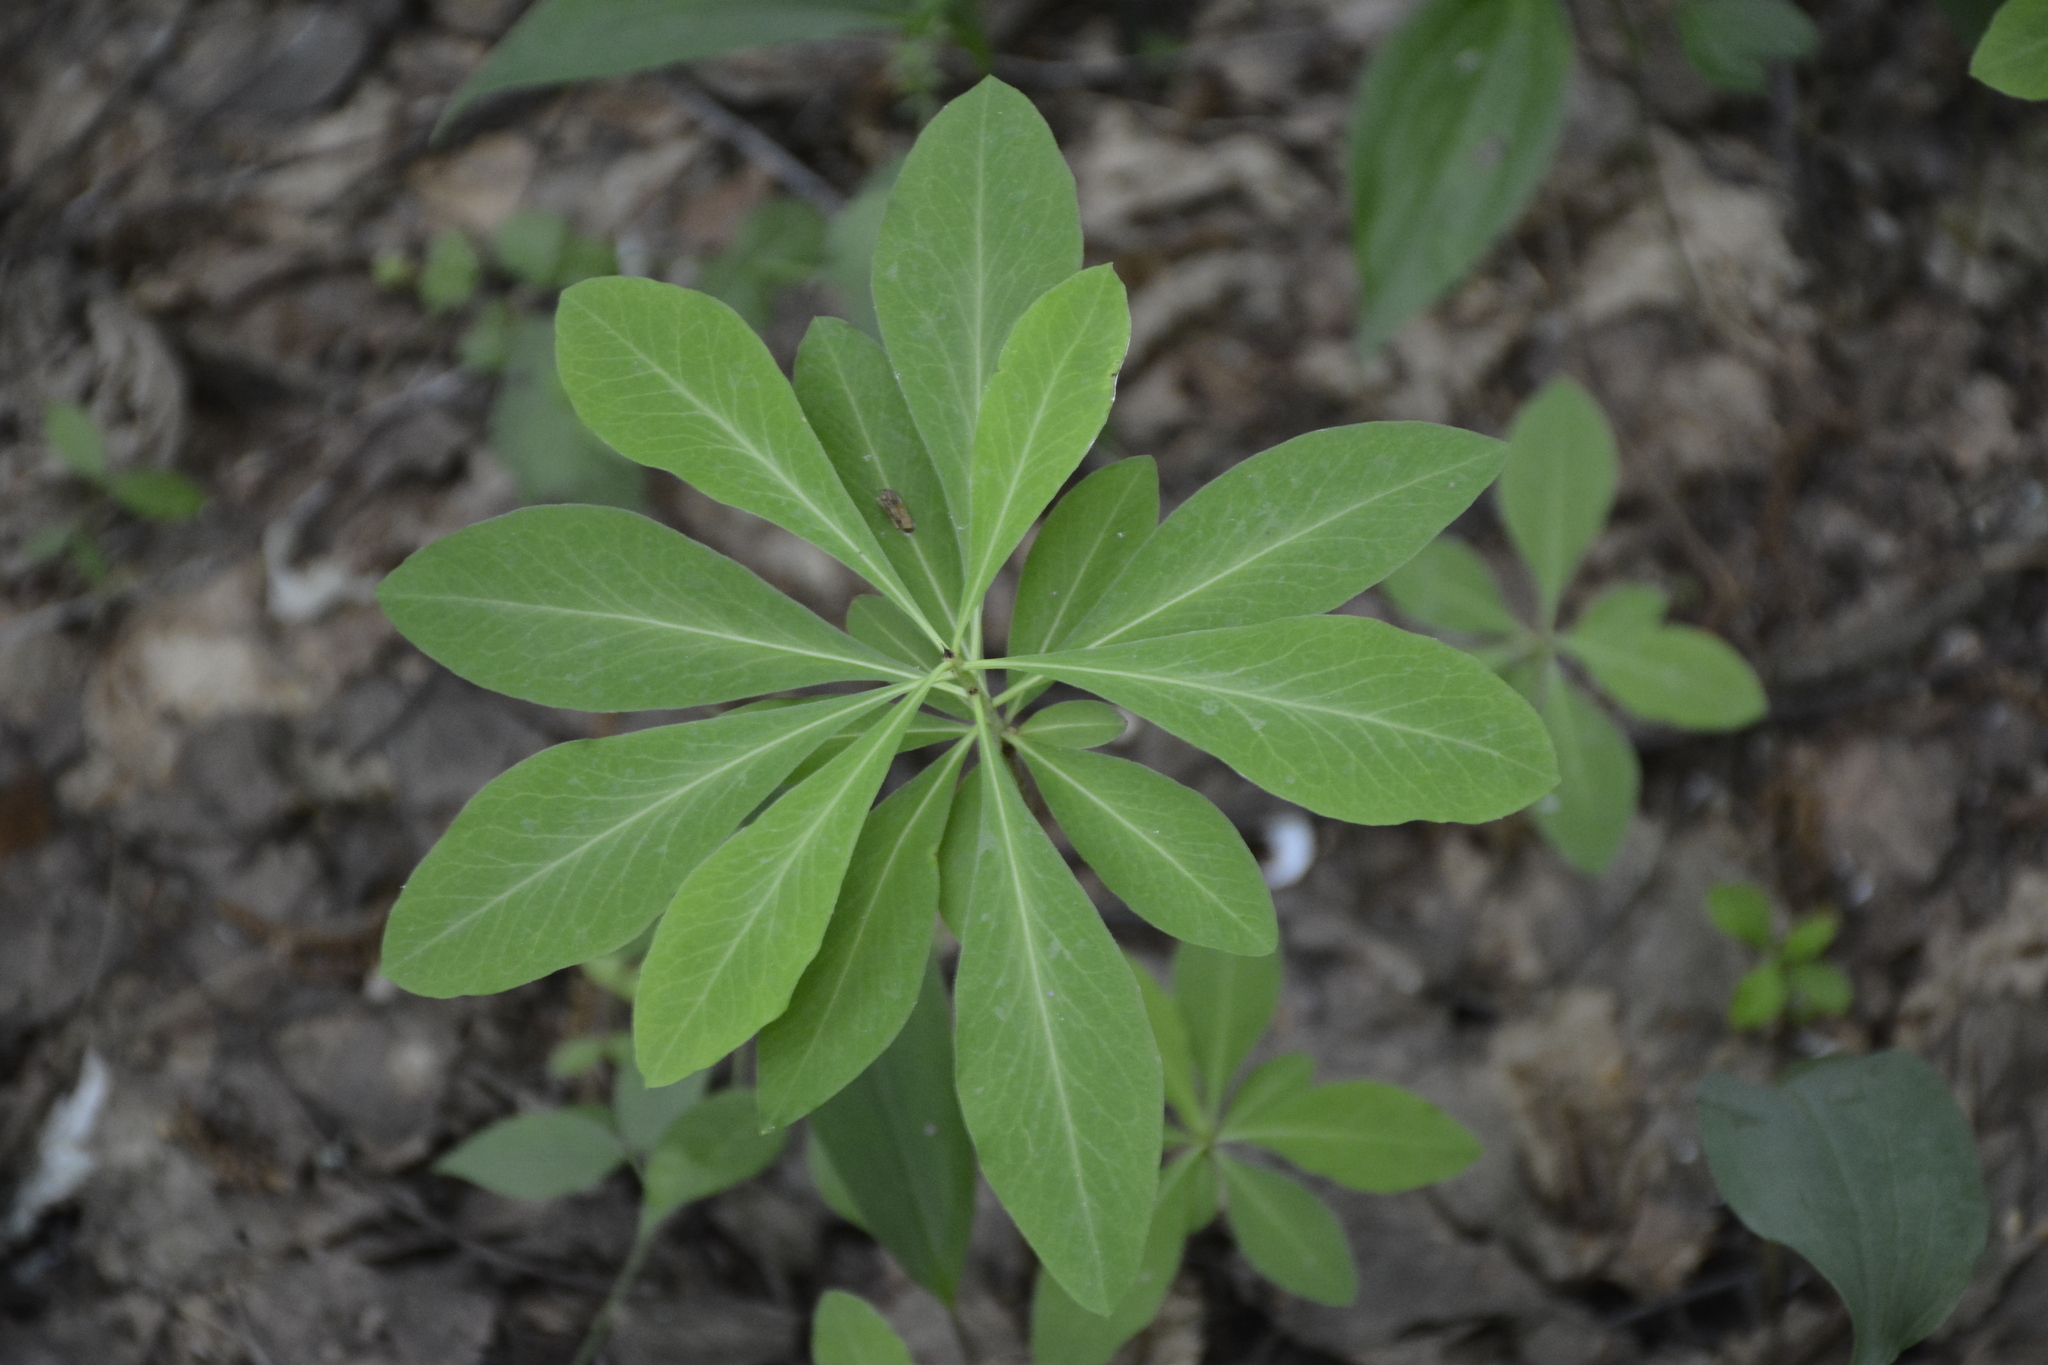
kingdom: Plantae
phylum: Tracheophyta
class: Magnoliopsida
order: Malvales
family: Thymelaeaceae
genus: Daphne
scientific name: Daphne mezereum
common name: Mezereon
